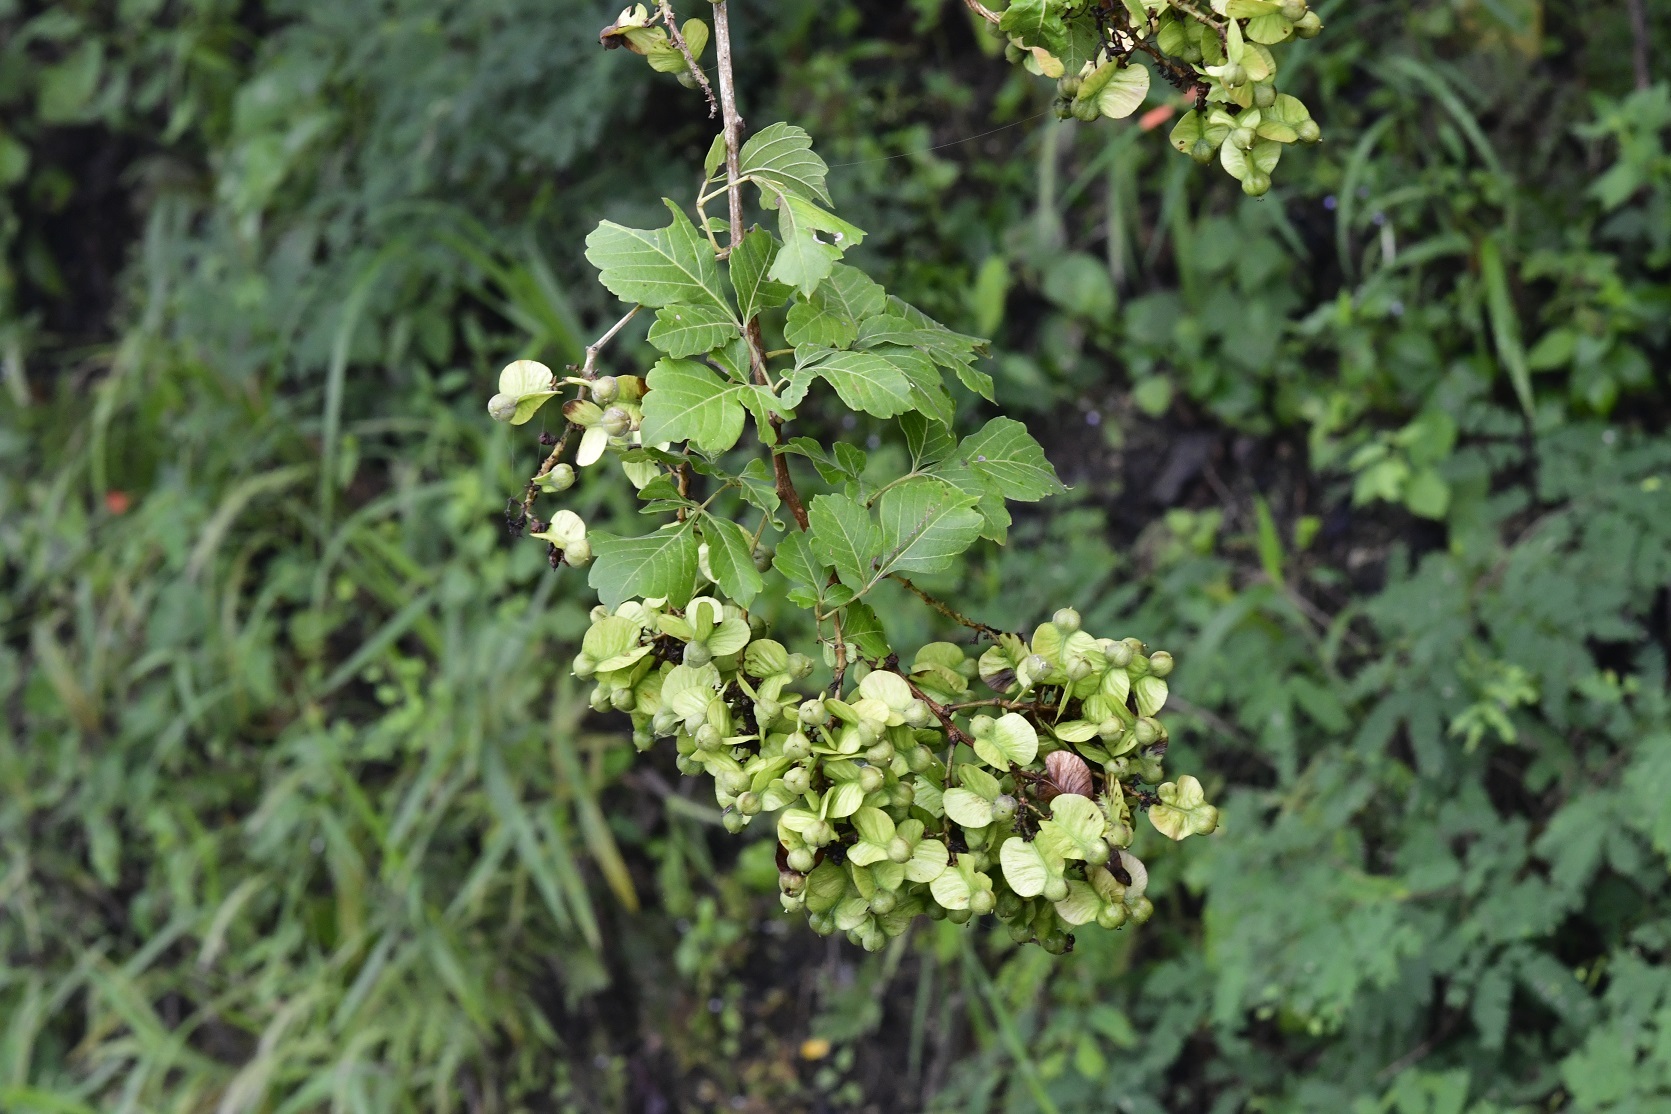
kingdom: Plantae
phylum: Tracheophyta
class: Magnoliopsida
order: Sapindales
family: Sapindaceae
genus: Serjania
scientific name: Serjania racemosa
